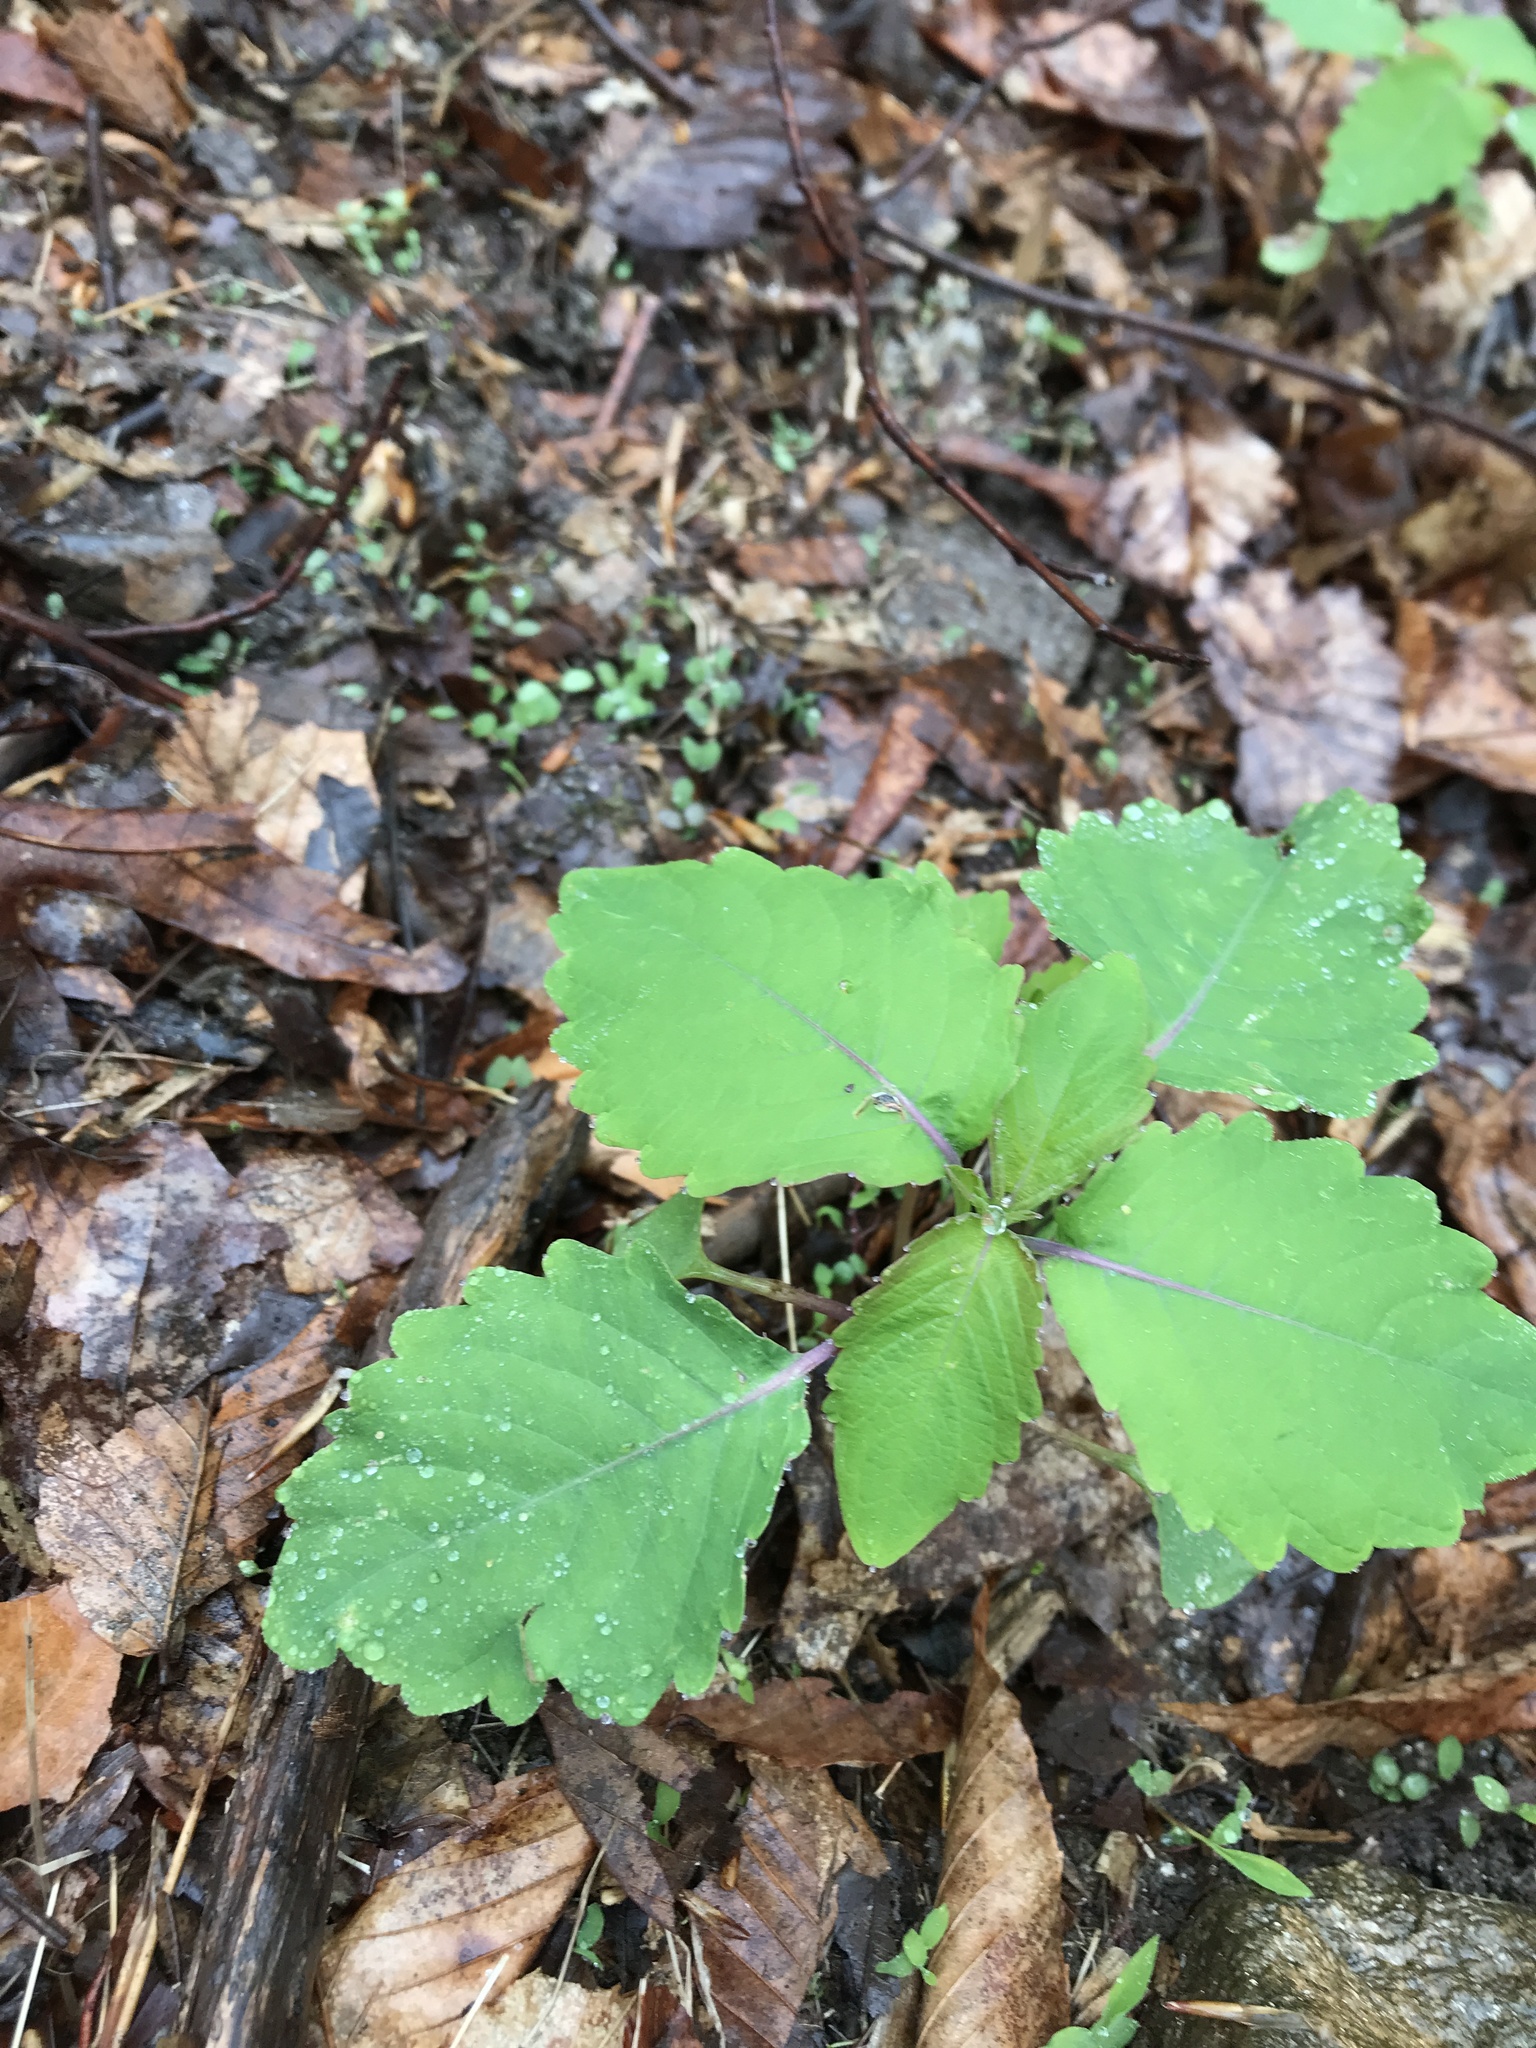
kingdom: Plantae
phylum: Tracheophyta
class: Magnoliopsida
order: Ericales
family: Balsaminaceae
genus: Impatiens
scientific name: Impatiens
